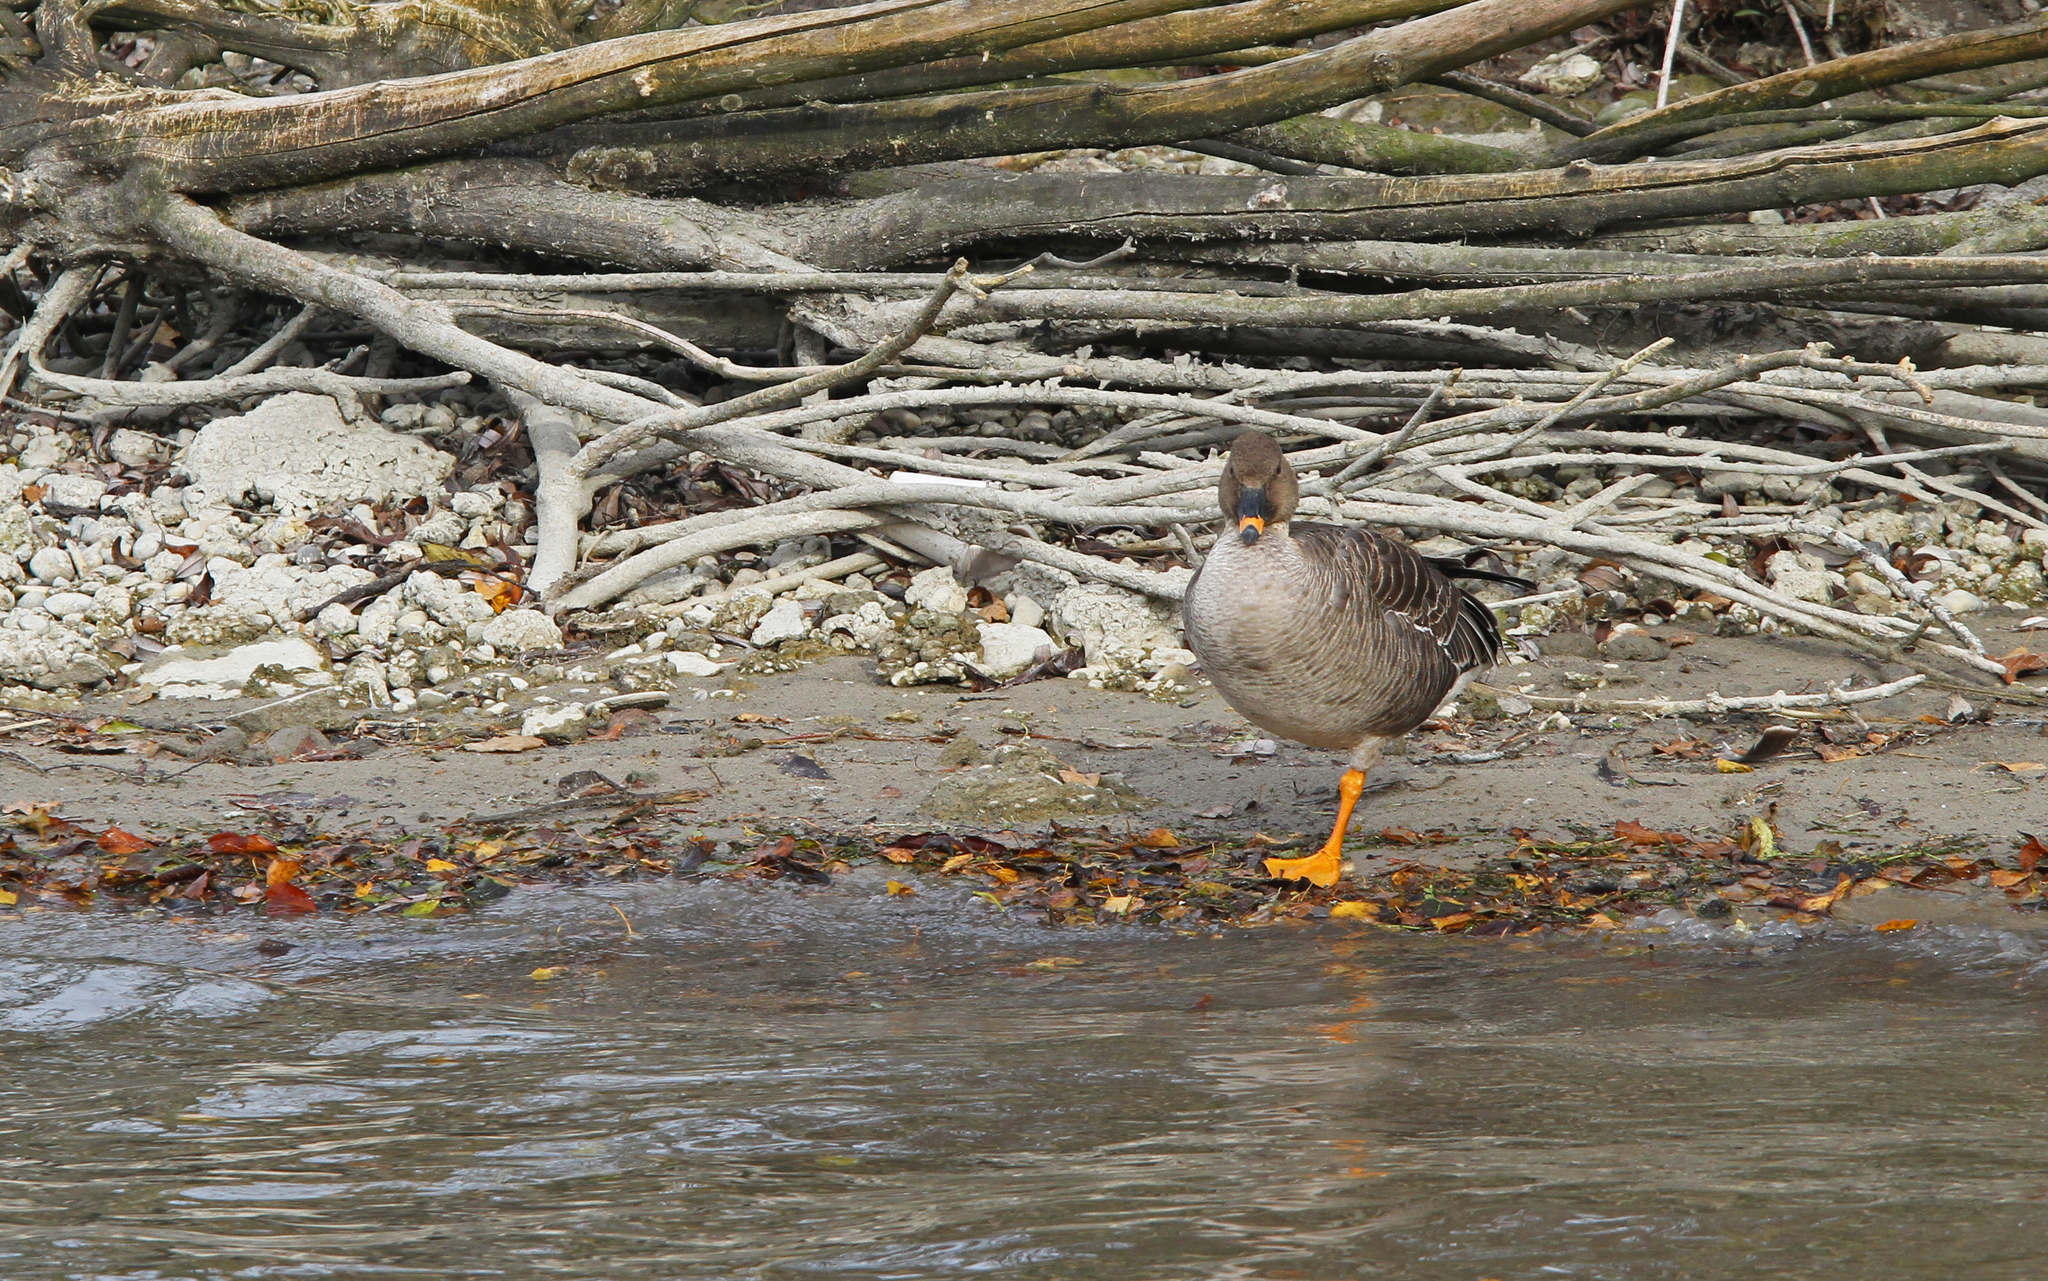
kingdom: Animalia
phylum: Chordata
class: Aves
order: Anseriformes
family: Anatidae
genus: Anser
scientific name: Anser serrirostris
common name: Tundra bean goose
